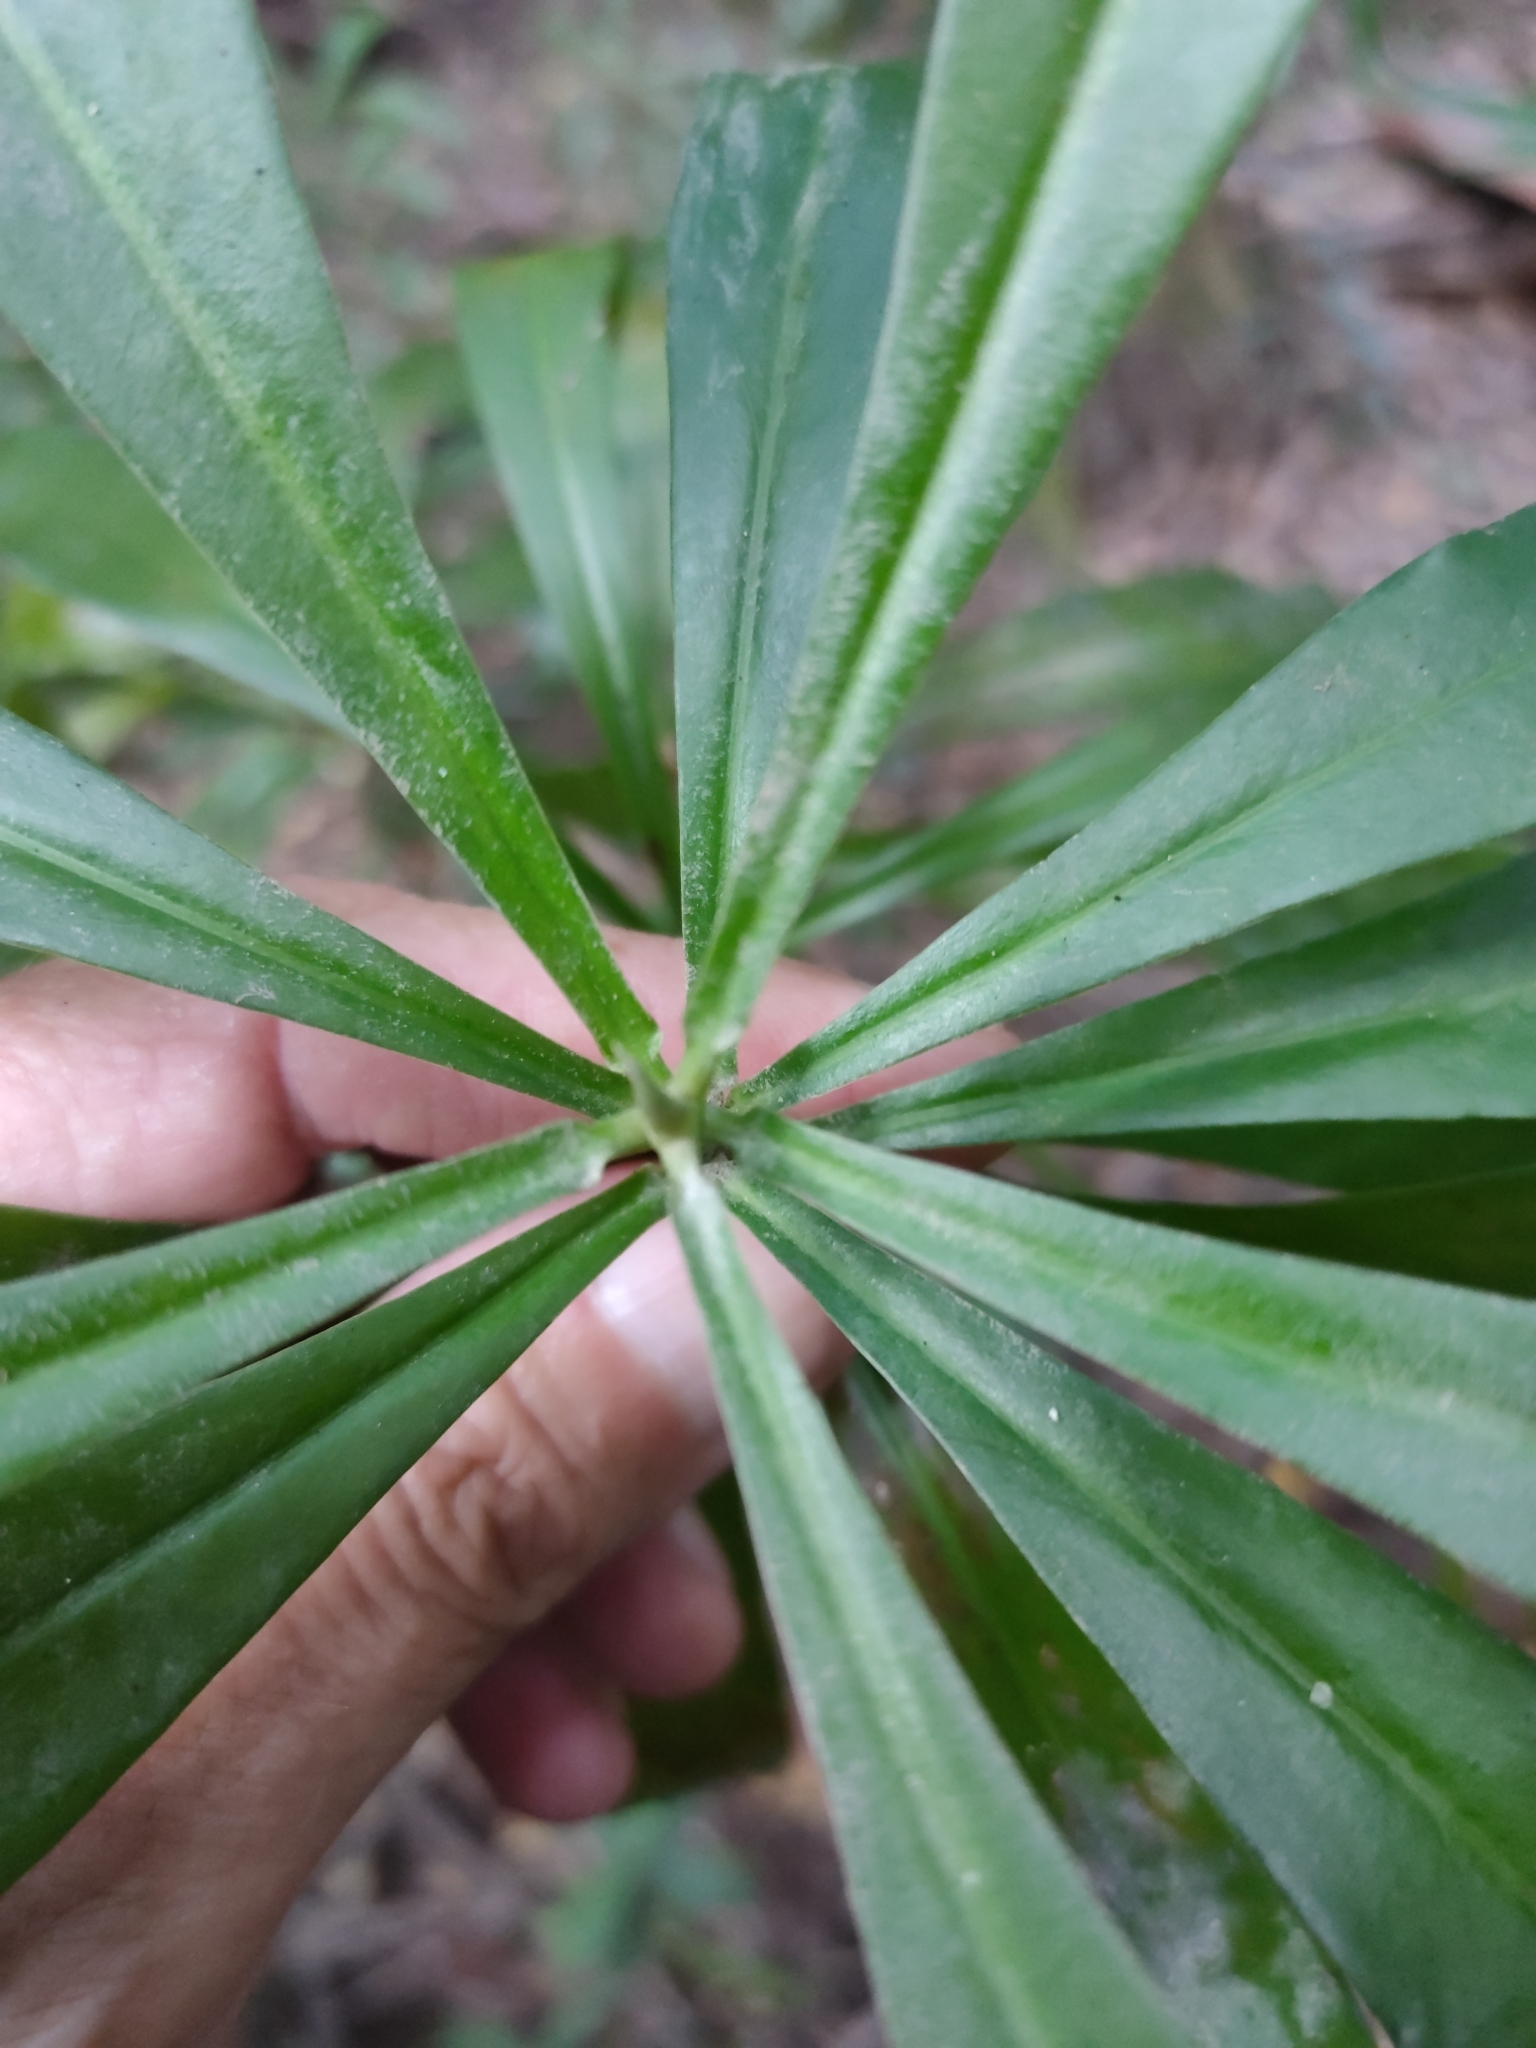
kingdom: Plantae
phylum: Tracheophyta
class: Magnoliopsida
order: Canellales
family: Winteraceae
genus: Drimys
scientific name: Drimys insipida
